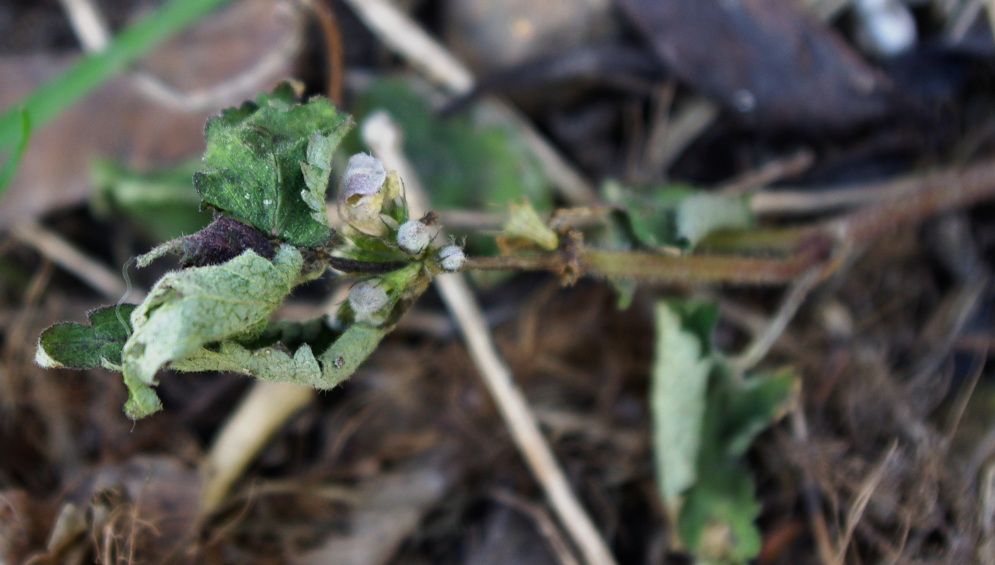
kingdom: Plantae
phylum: Tracheophyta
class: Magnoliopsida
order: Lamiales
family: Lamiaceae
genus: Lamium
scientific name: Lamium album
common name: White dead-nettle
